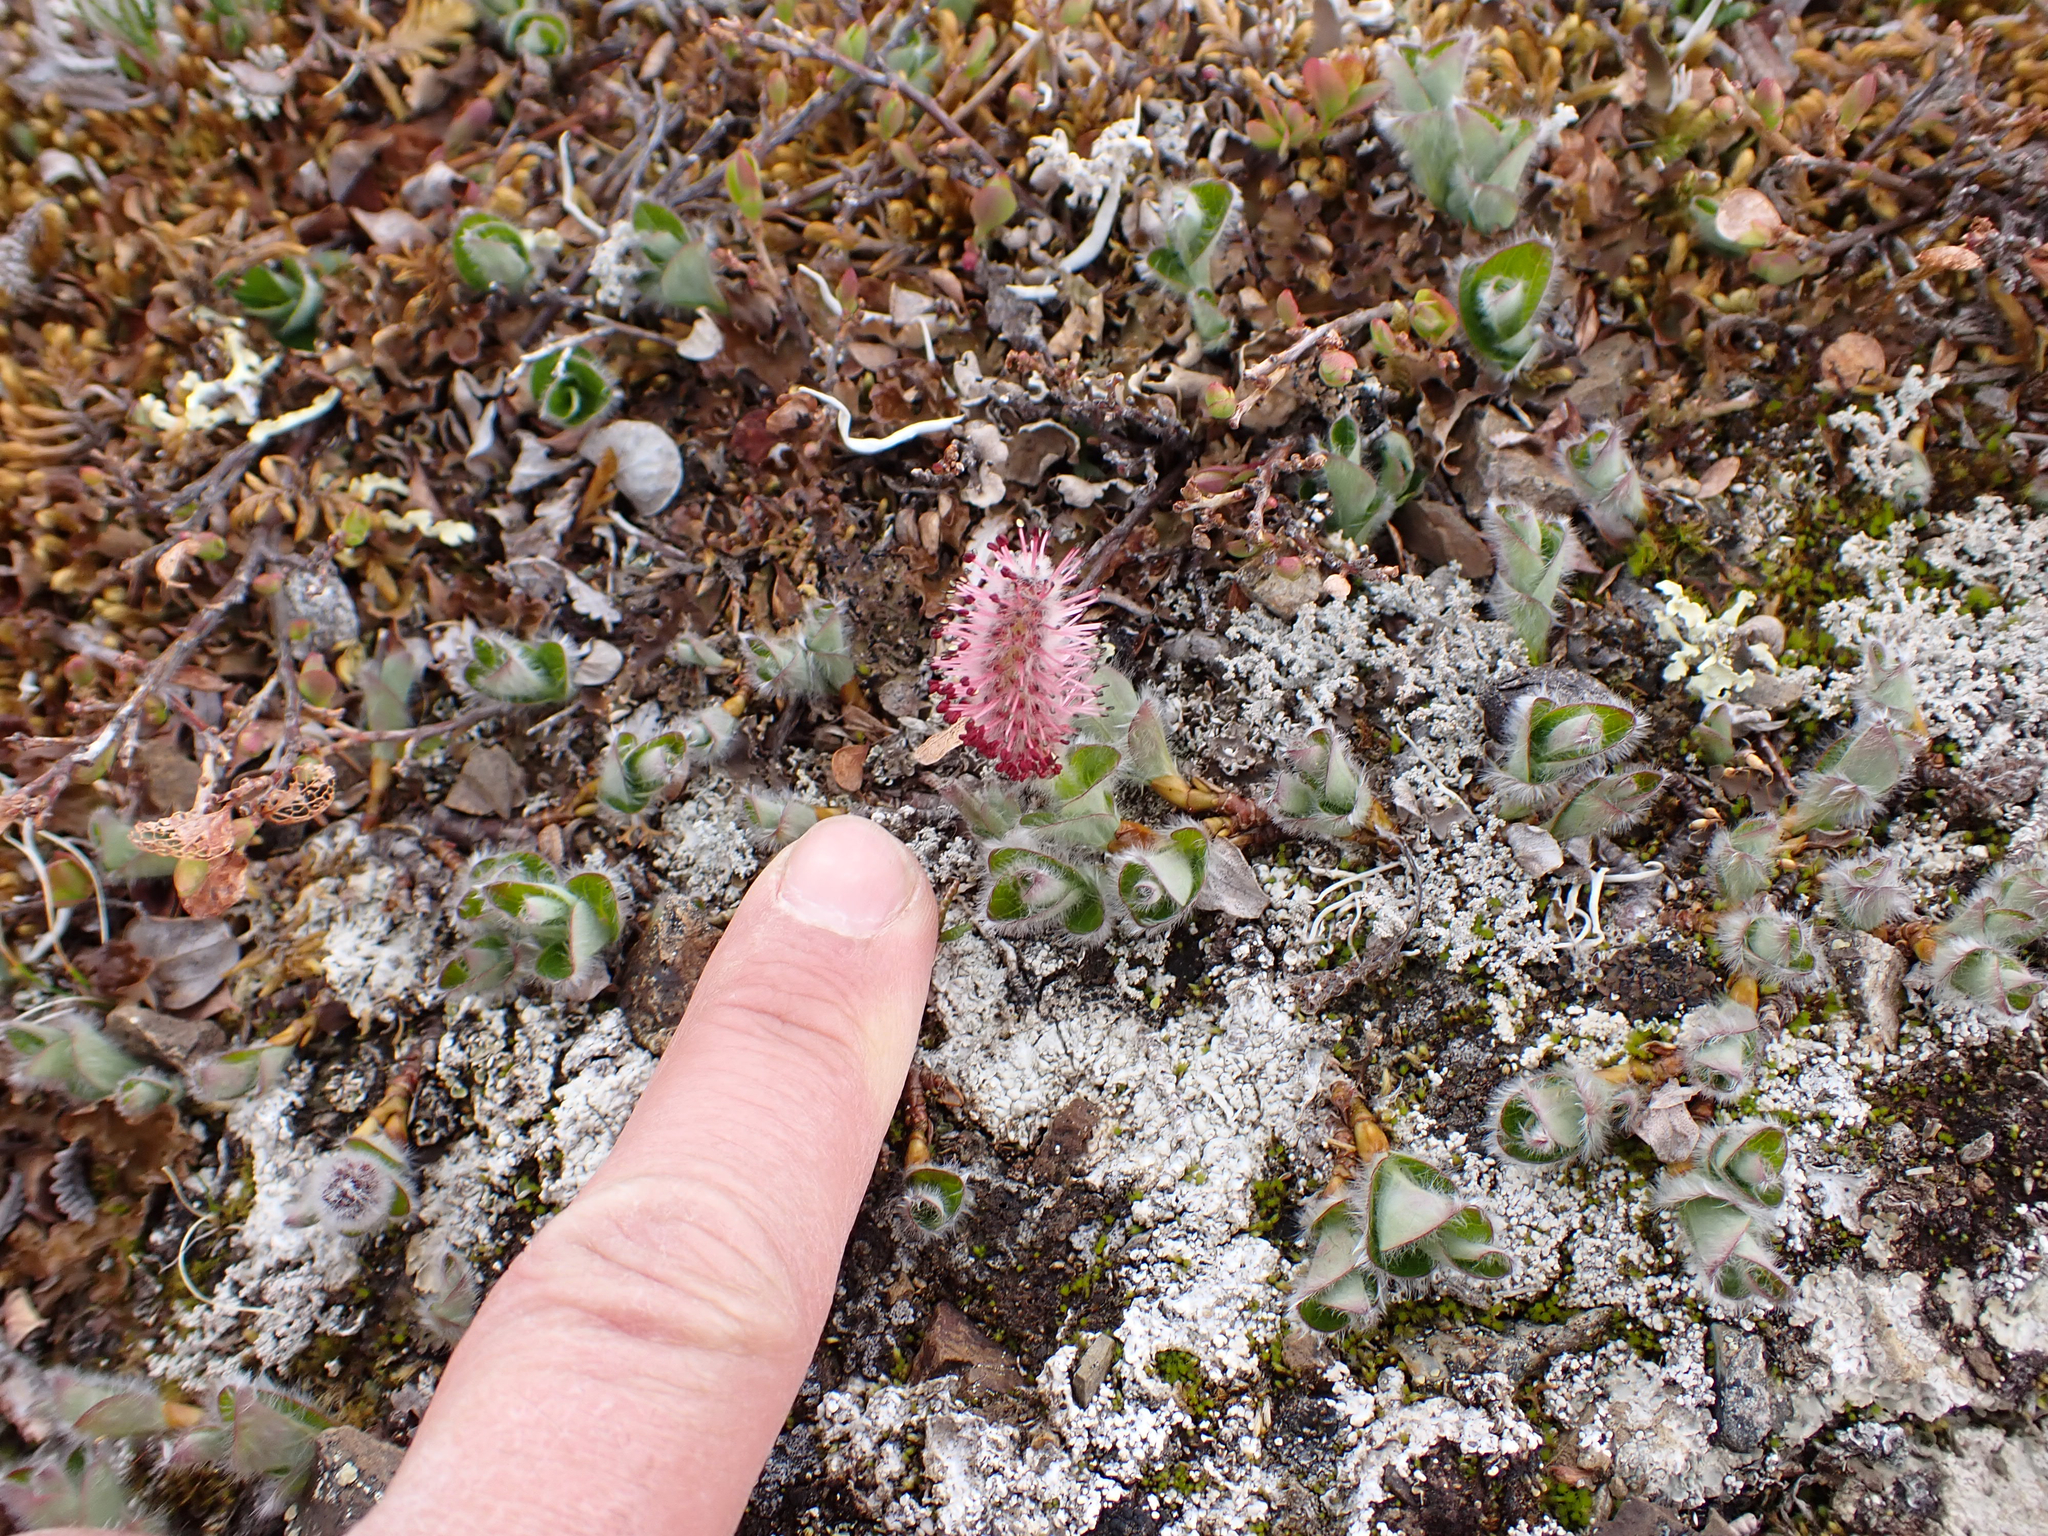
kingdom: Plantae
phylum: Tracheophyta
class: Magnoliopsida
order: Malpighiales
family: Salicaceae
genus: Salix
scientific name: Salix arctica
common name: Arctic willow
